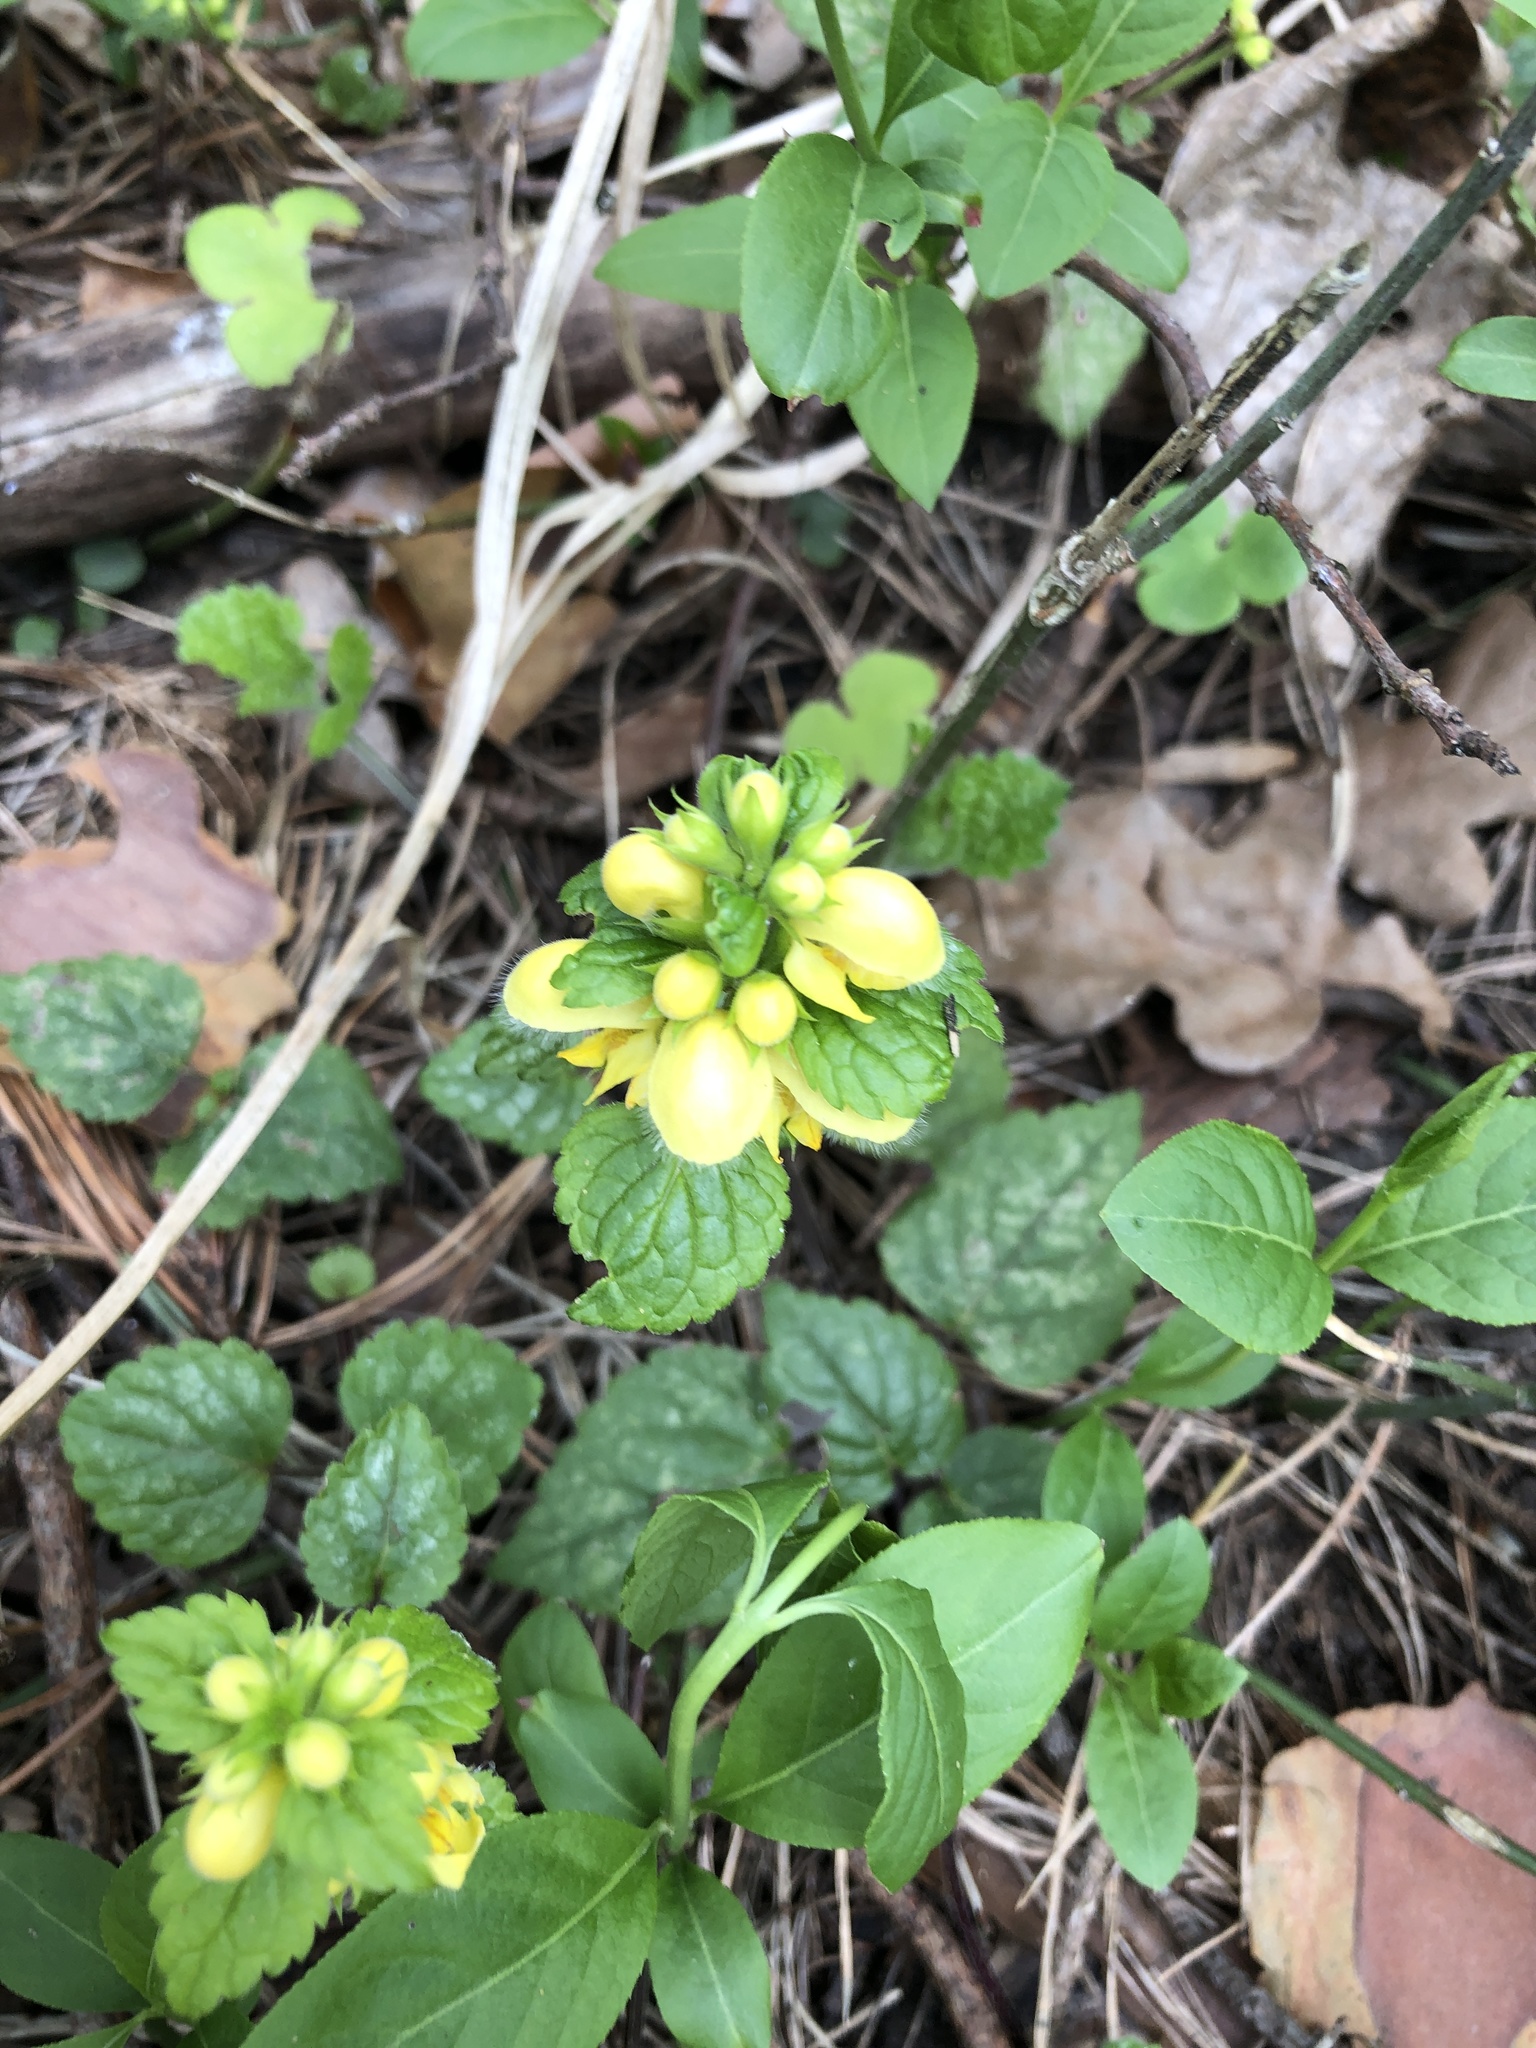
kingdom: Plantae
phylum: Tracheophyta
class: Magnoliopsida
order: Lamiales
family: Lamiaceae
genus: Lamium
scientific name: Lamium galeobdolon
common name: Yellow archangel
